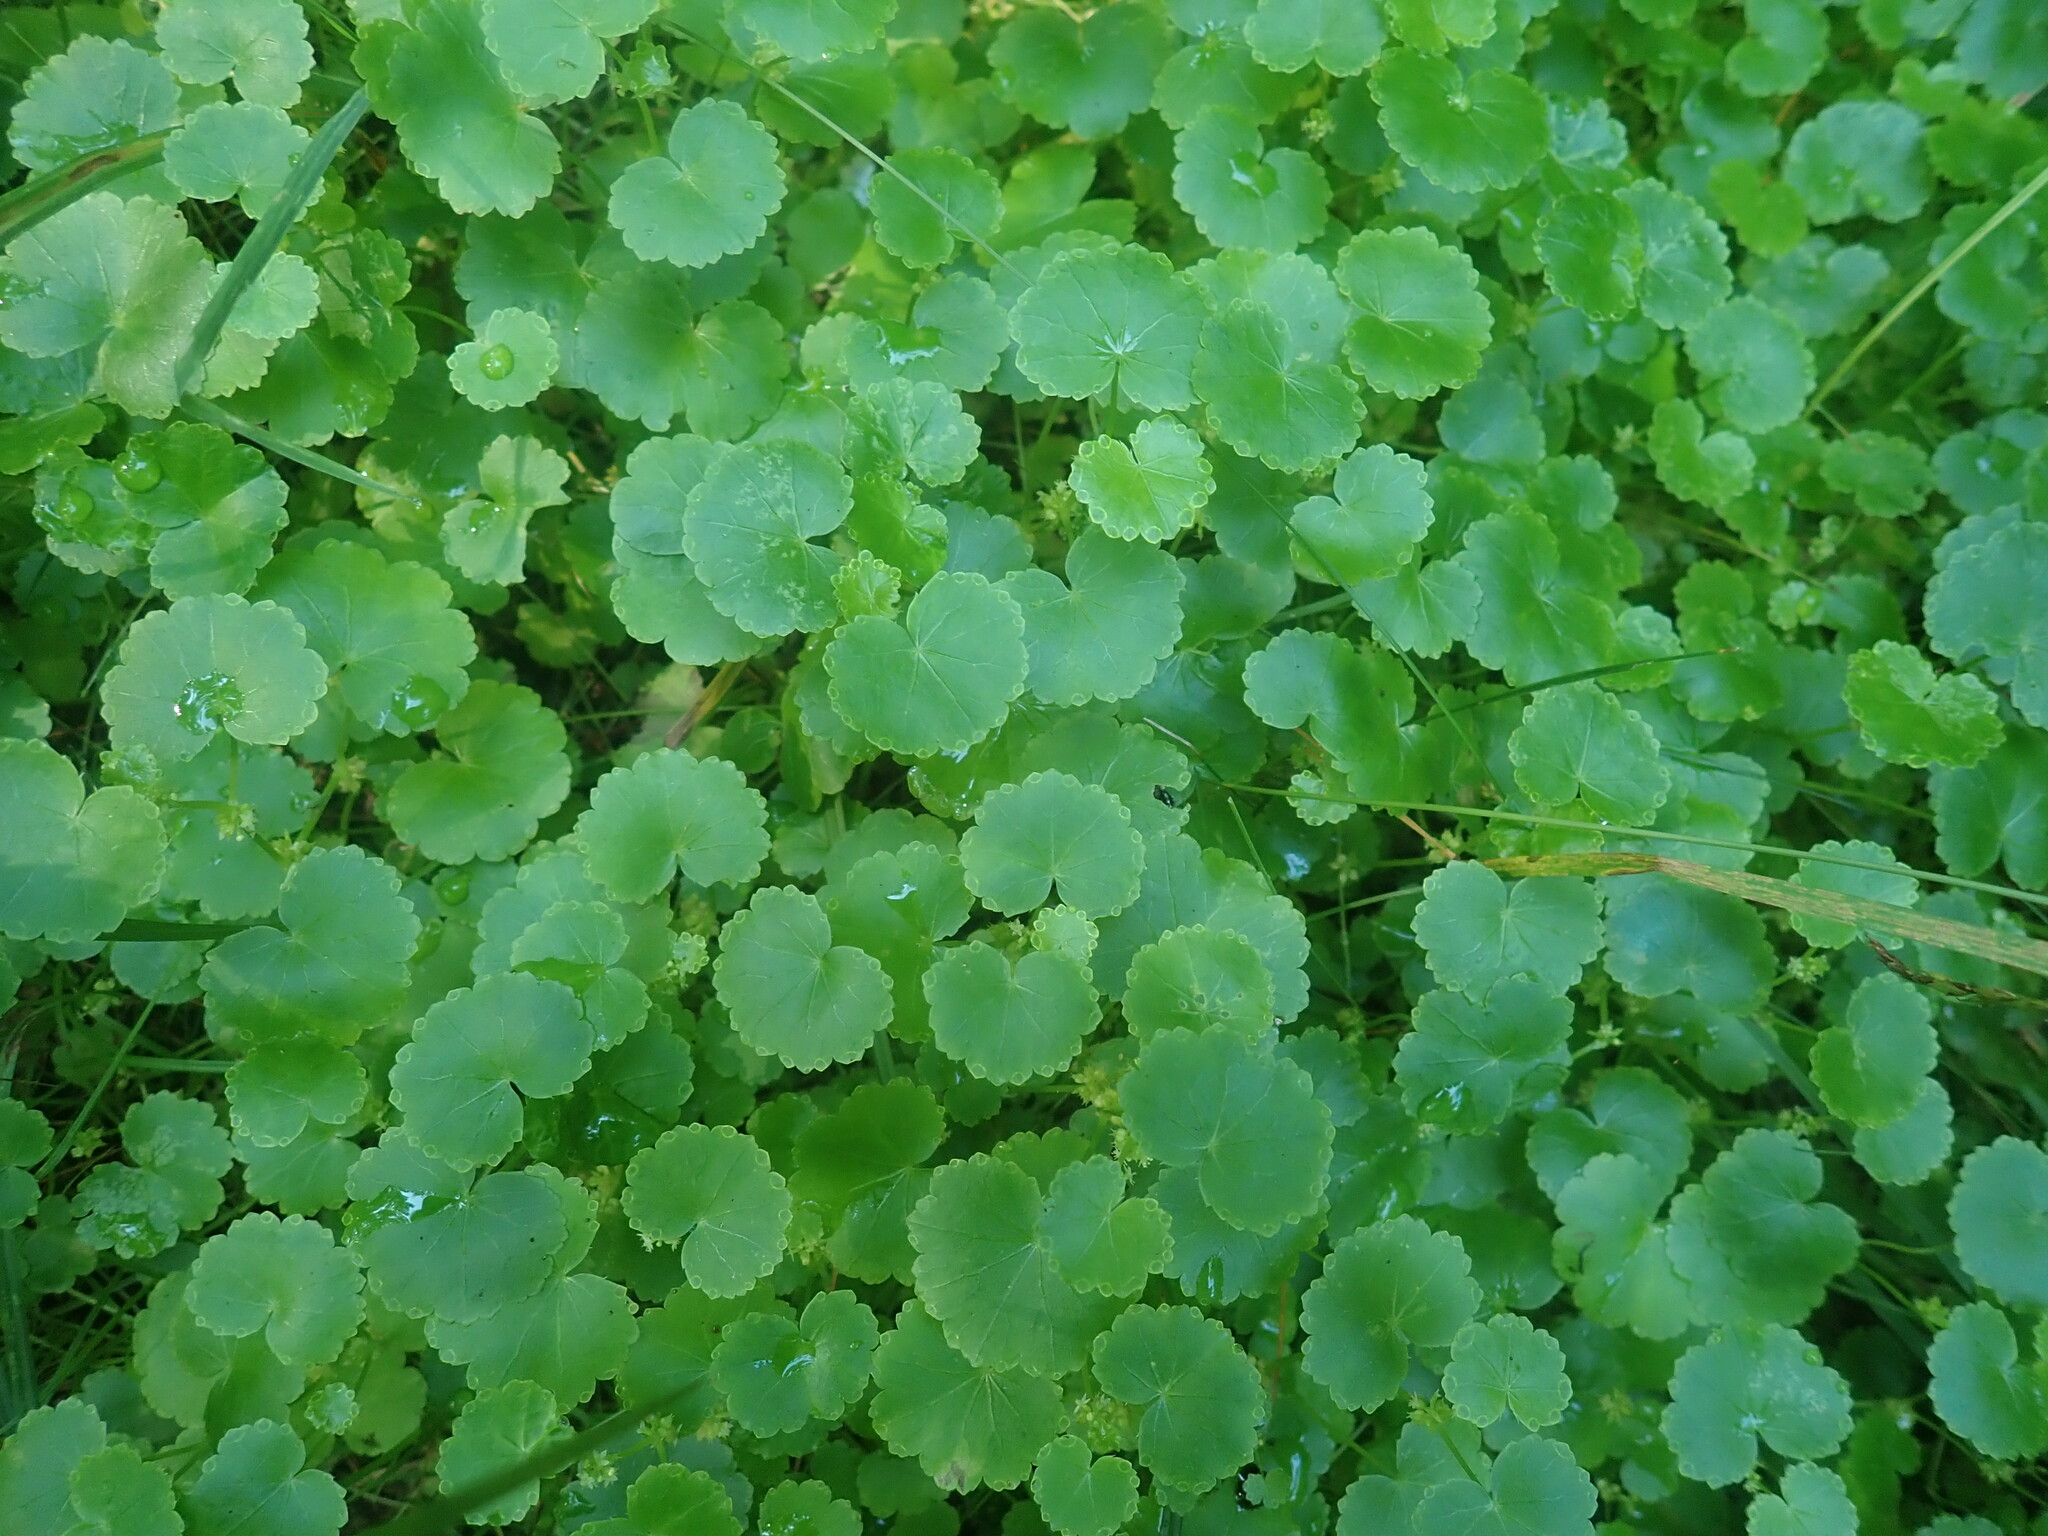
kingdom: Plantae
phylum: Tracheophyta
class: Magnoliopsida
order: Apiales
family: Araliaceae
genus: Hydrocotyle
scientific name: Hydrocotyle americana
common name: American water-pennywort
